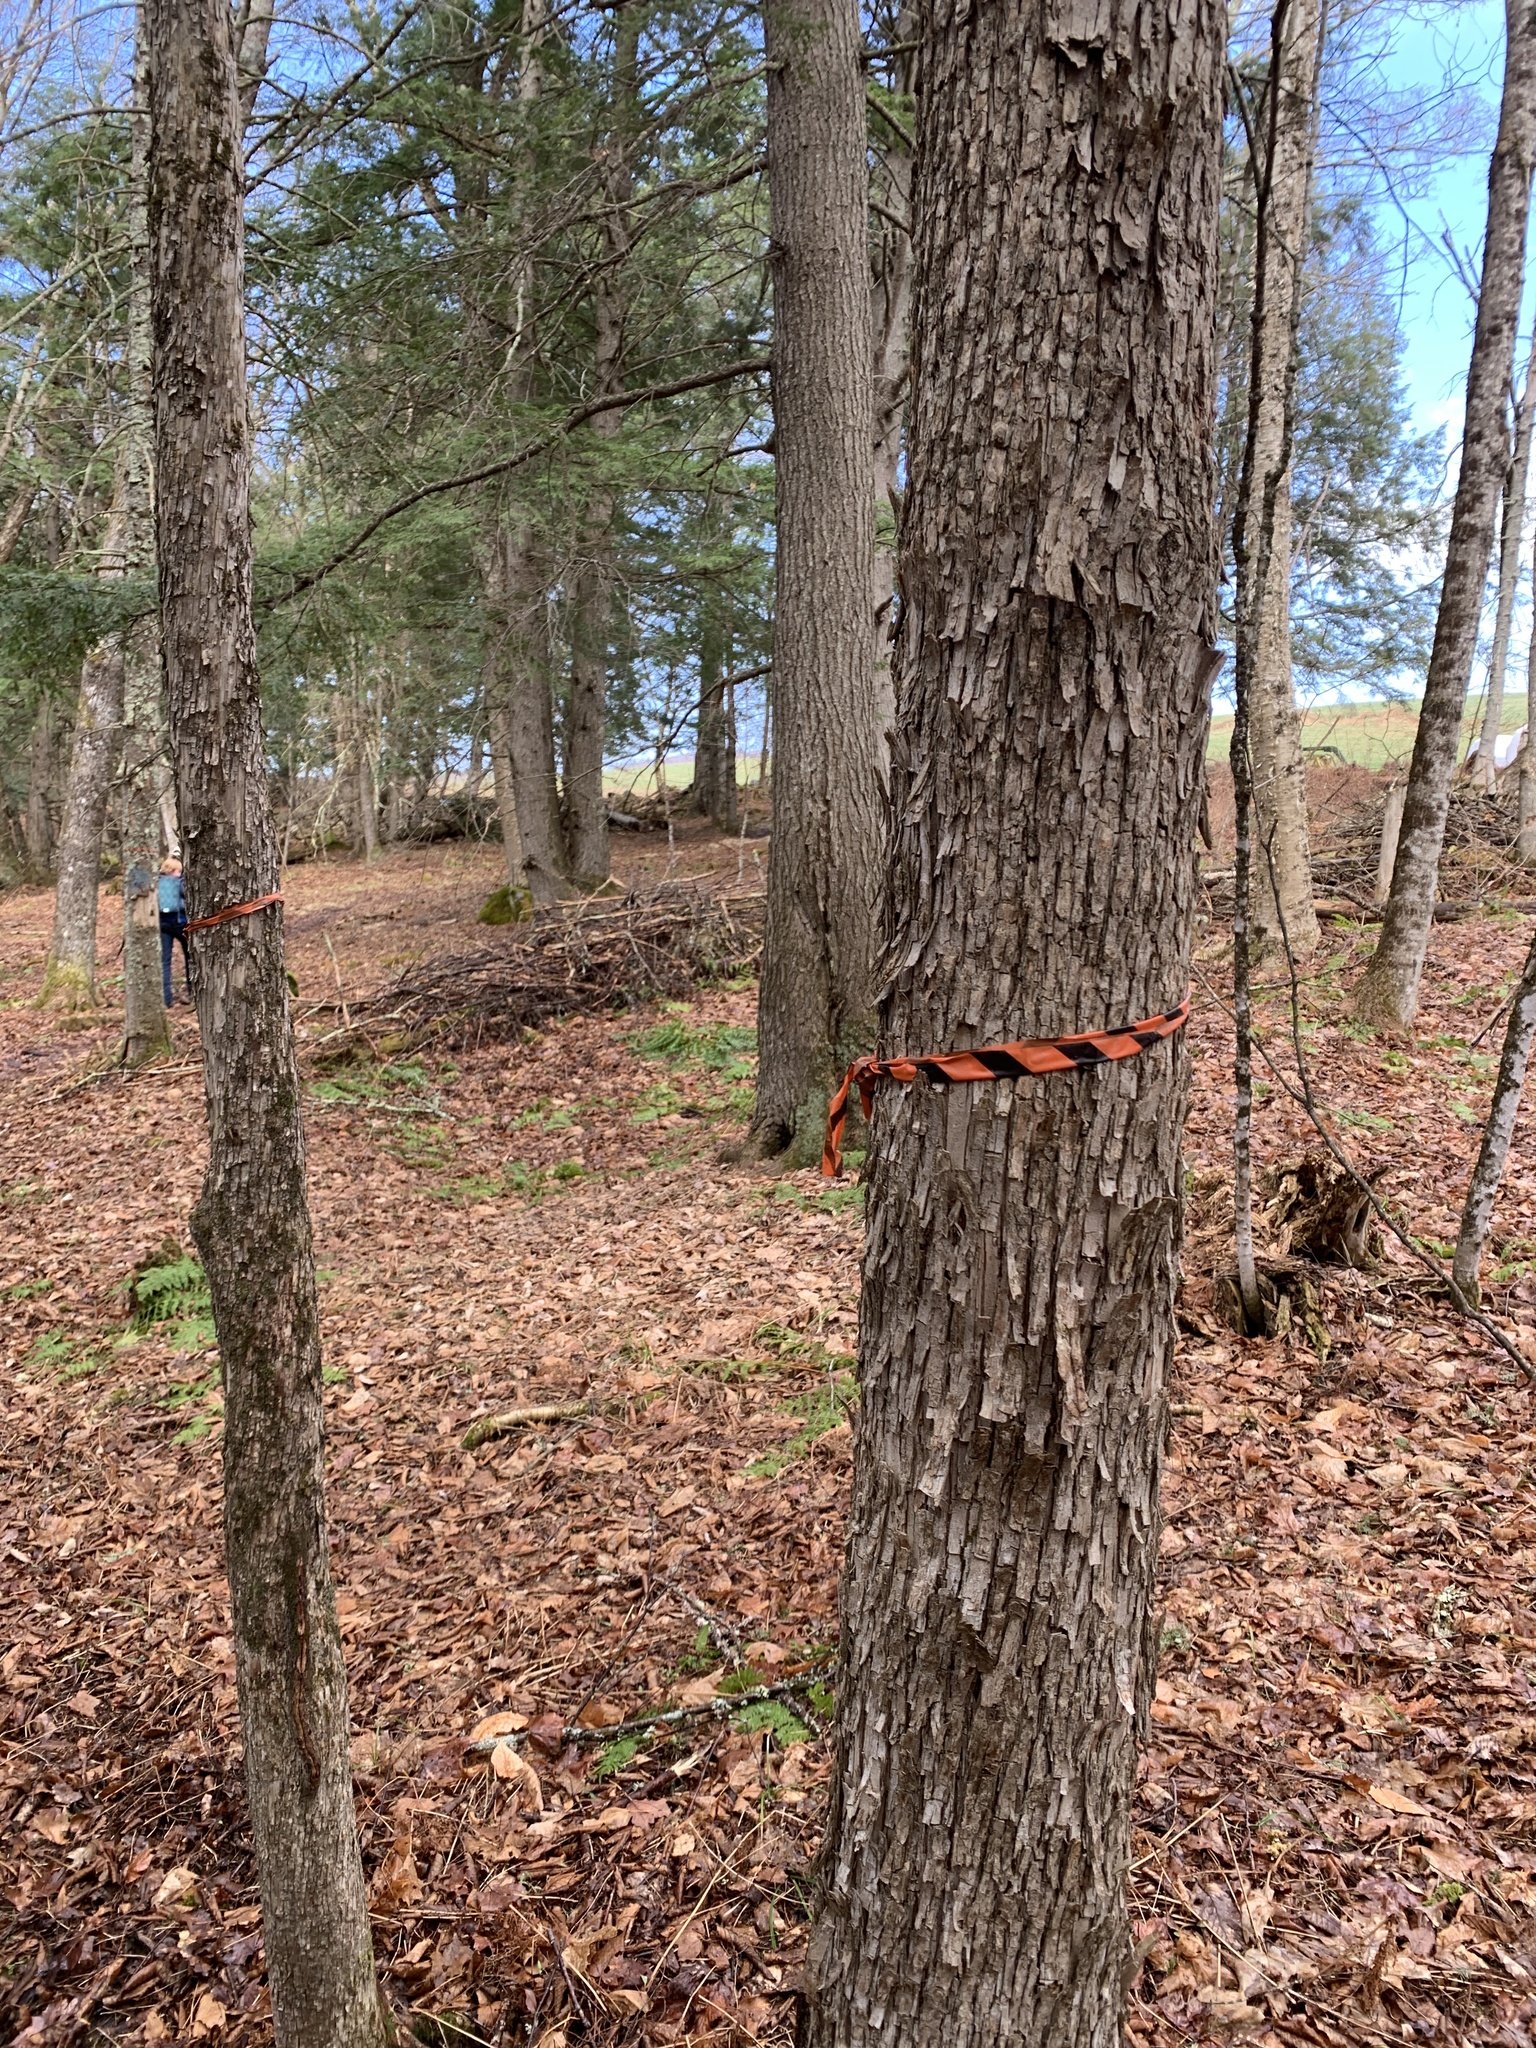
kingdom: Plantae
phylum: Tracheophyta
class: Magnoliopsida
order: Fagales
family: Betulaceae
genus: Ostrya
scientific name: Ostrya virginiana
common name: Ironwood
